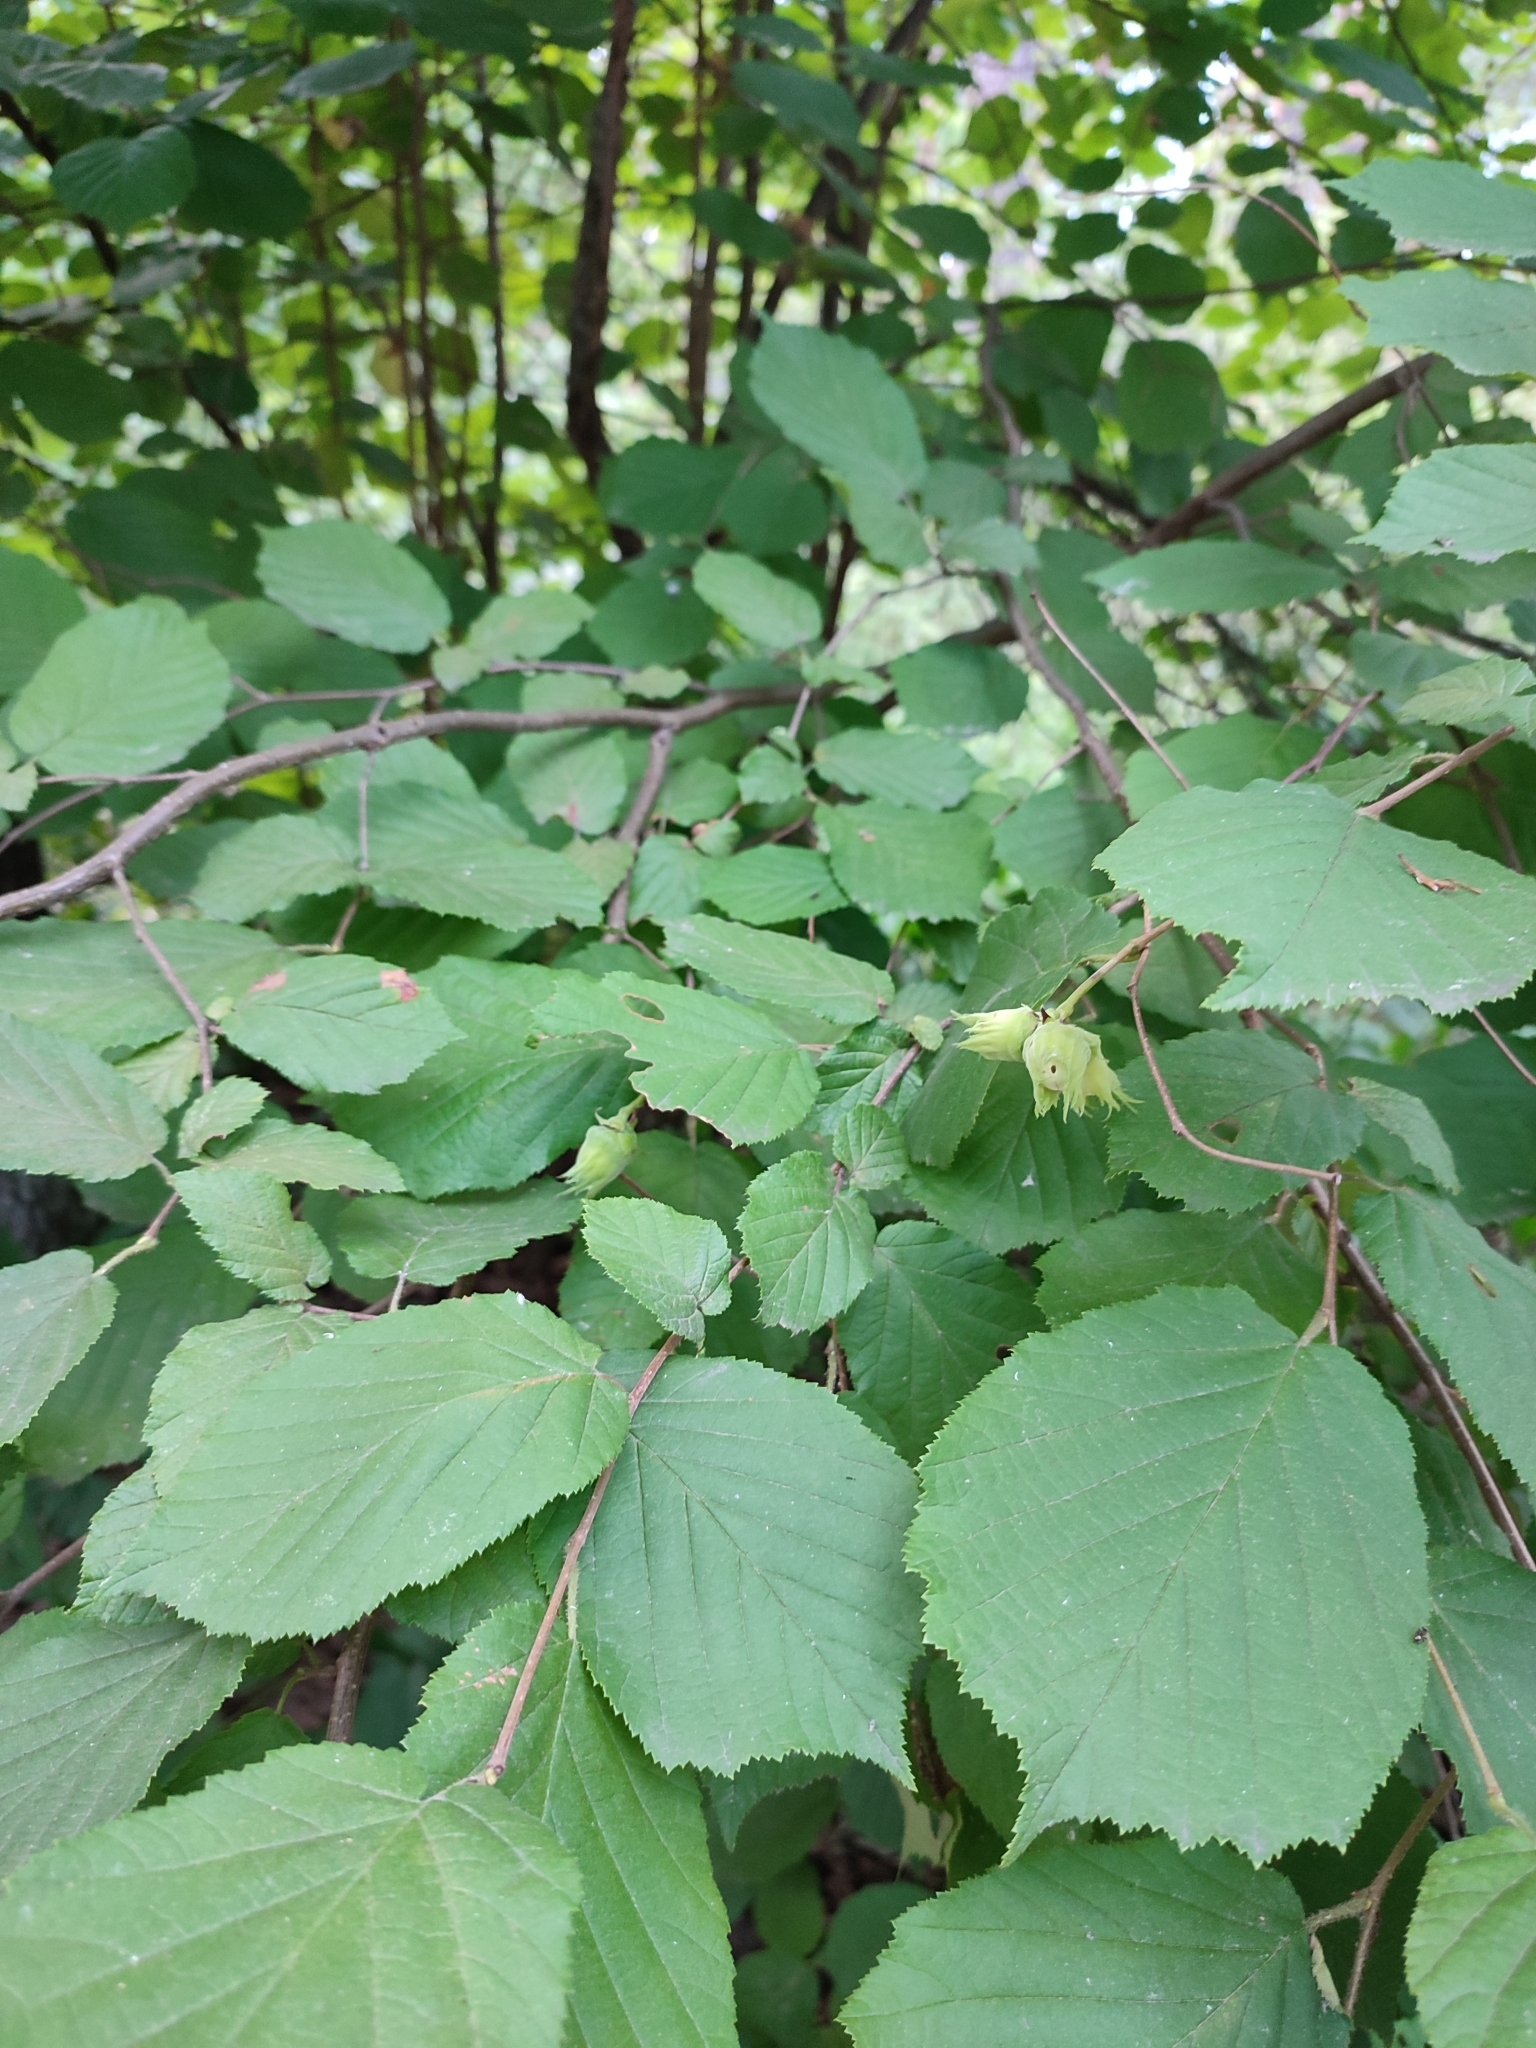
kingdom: Plantae
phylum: Tracheophyta
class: Magnoliopsida
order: Fagales
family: Betulaceae
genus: Corylus
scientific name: Corylus avellana
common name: European hazel
